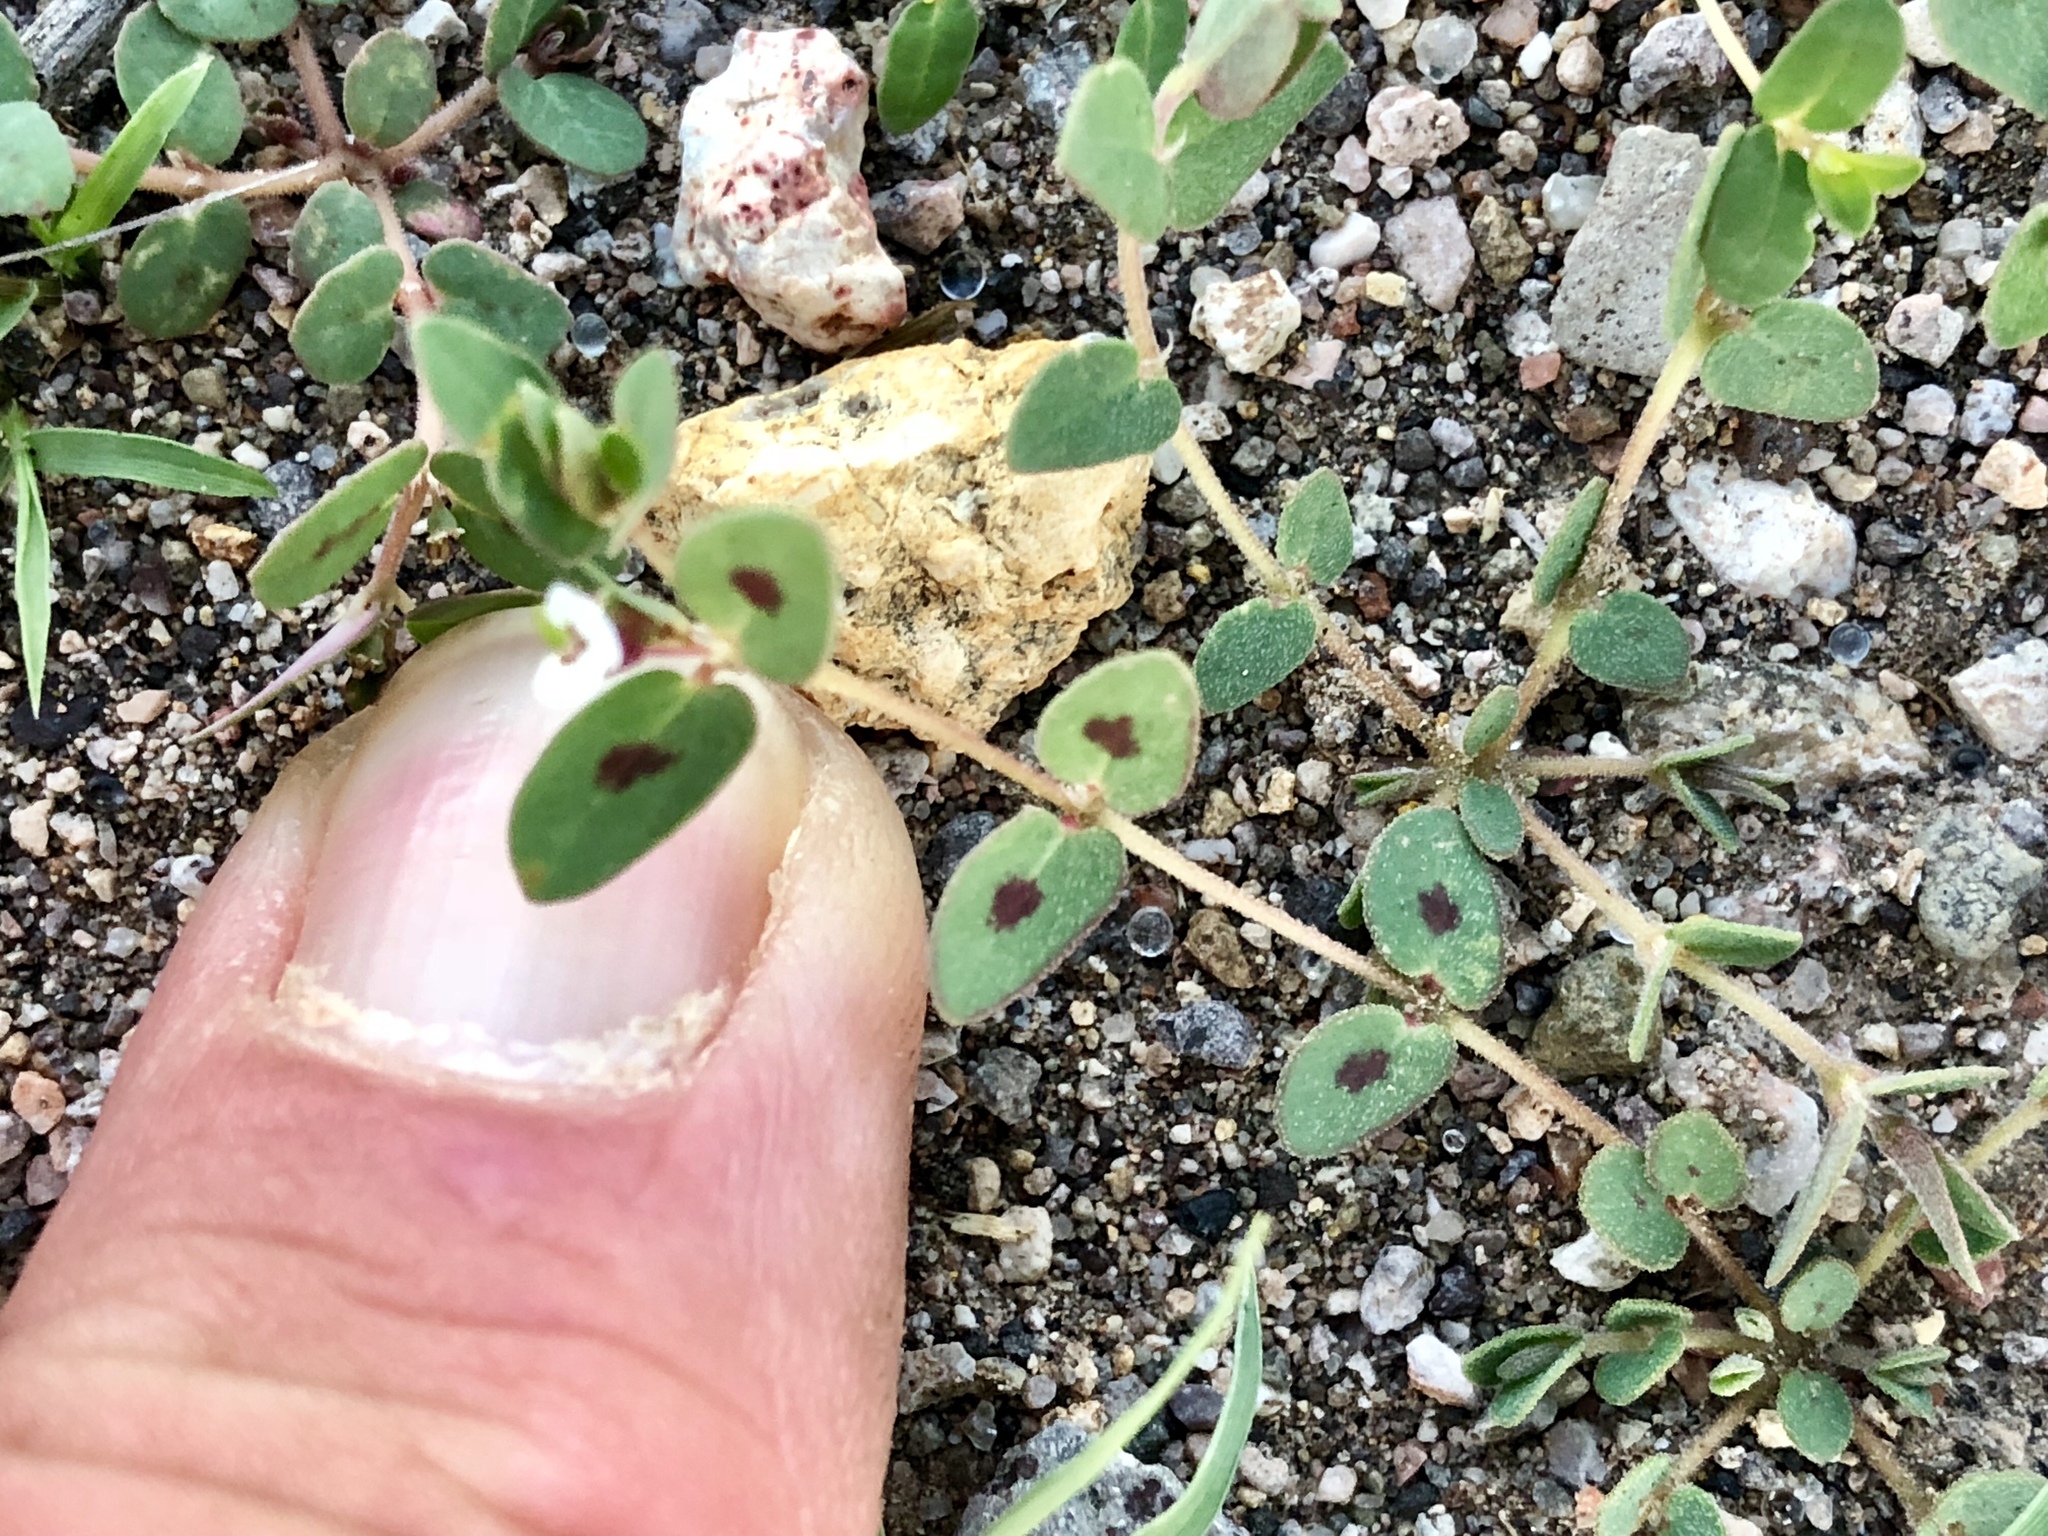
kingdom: Plantae
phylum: Tracheophyta
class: Magnoliopsida
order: Malpighiales
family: Euphorbiaceae
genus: Euphorbia
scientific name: Euphorbia capitellata
